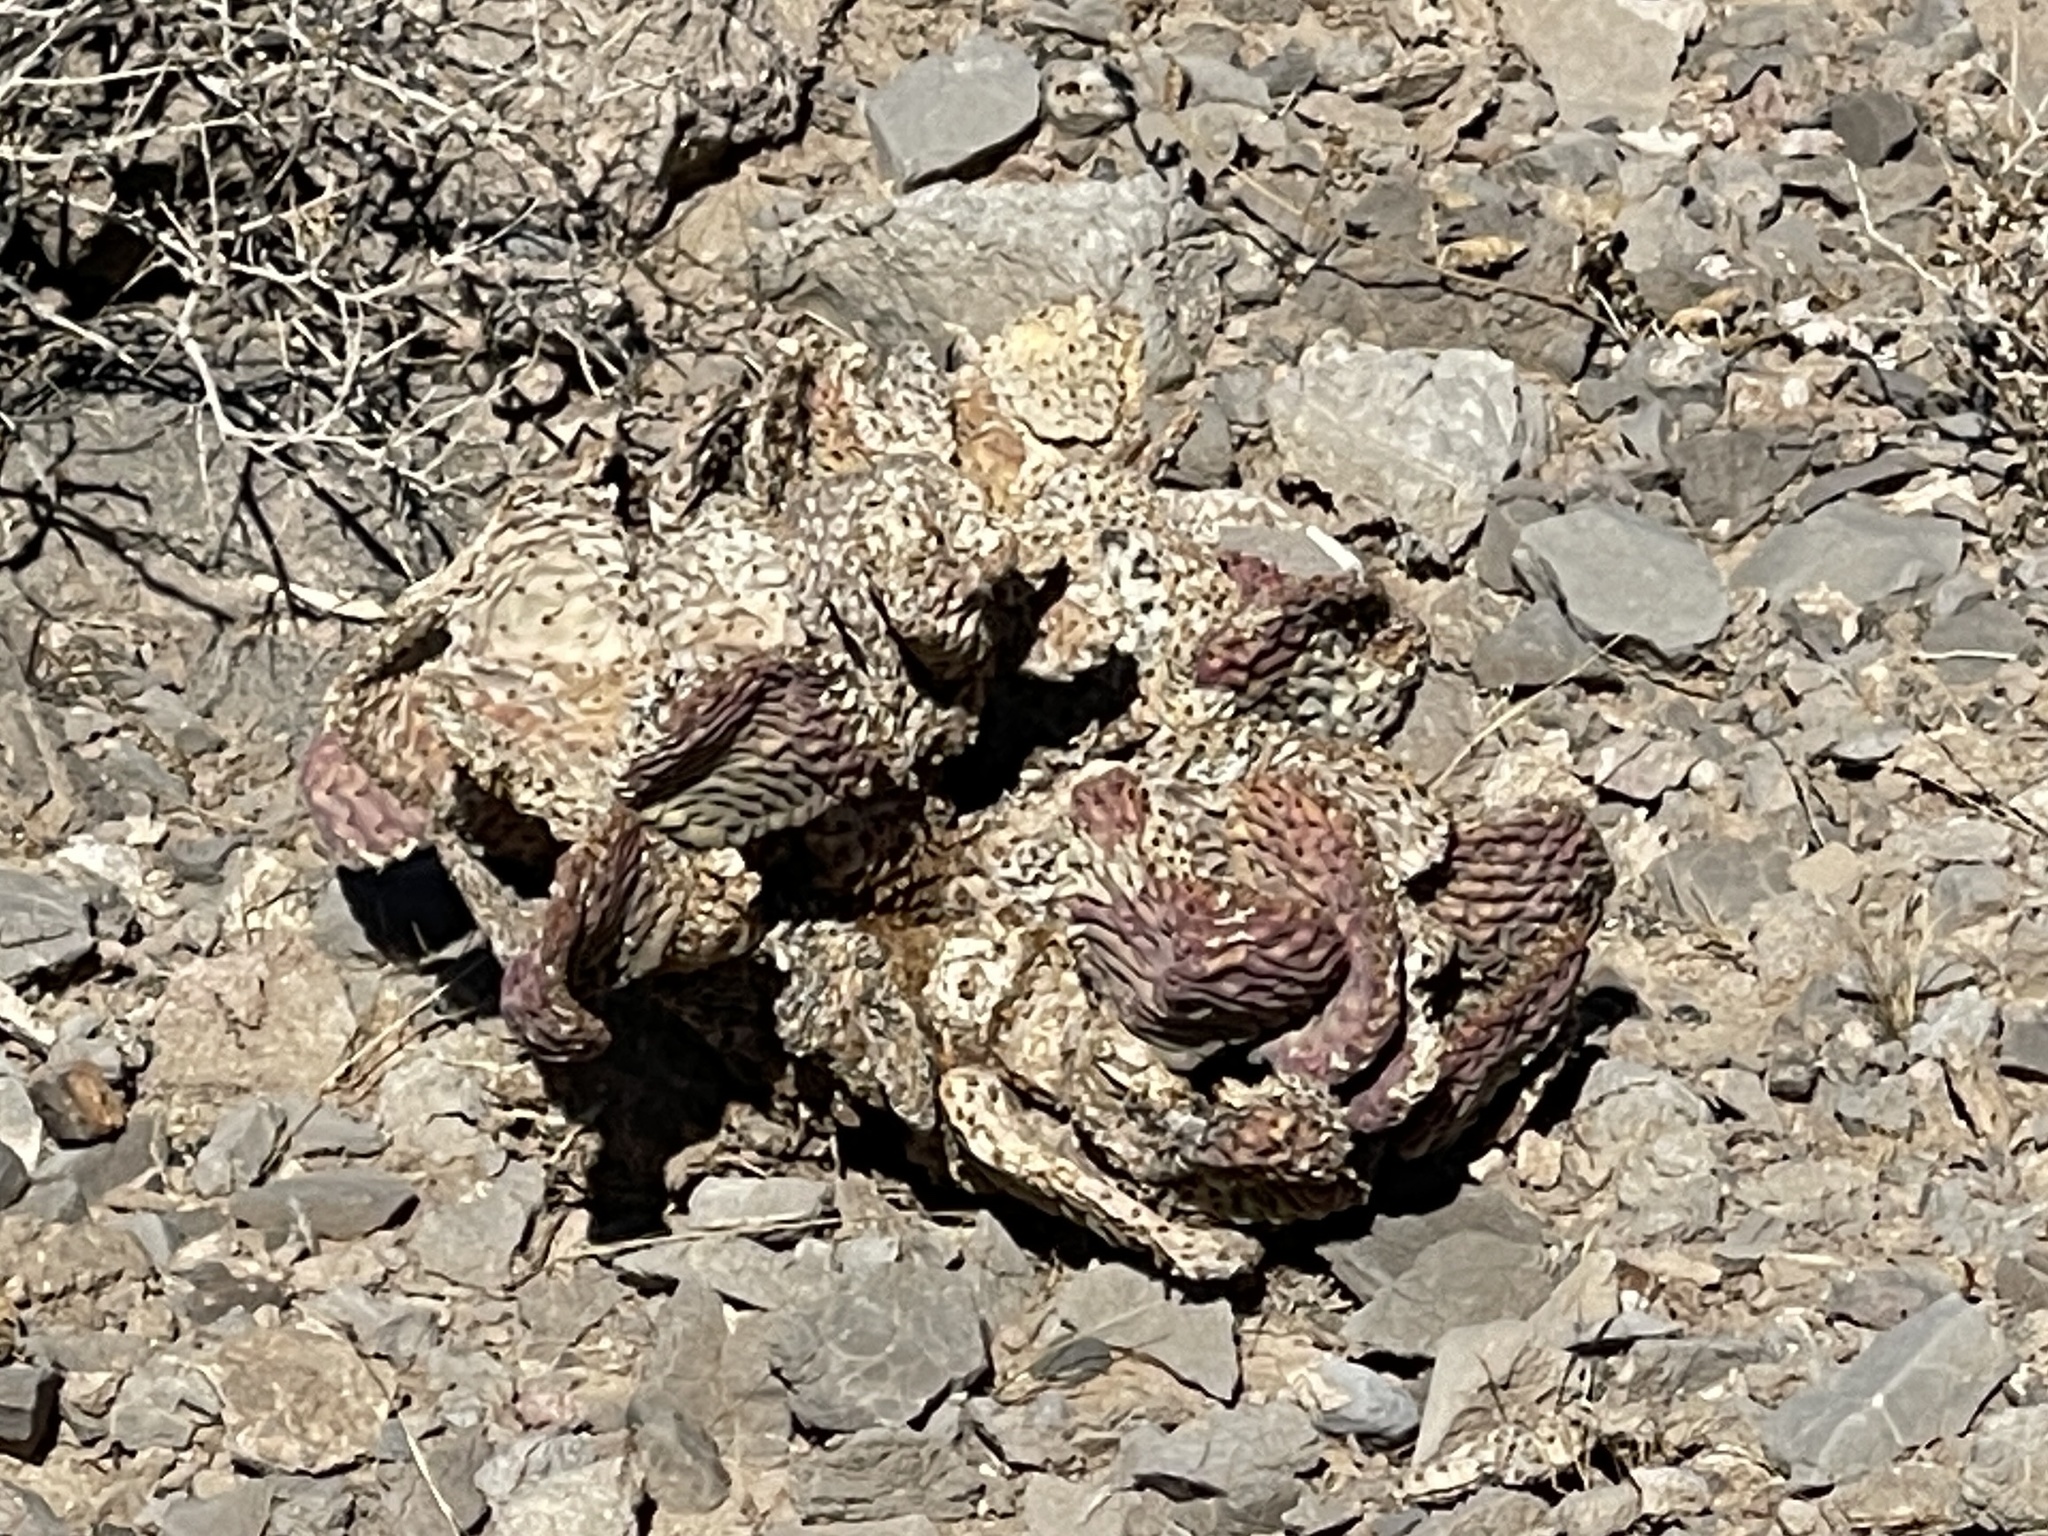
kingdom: Plantae
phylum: Tracheophyta
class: Magnoliopsida
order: Caryophyllales
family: Cactaceae
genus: Opuntia
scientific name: Opuntia basilaris
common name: Beavertail prickly-pear
